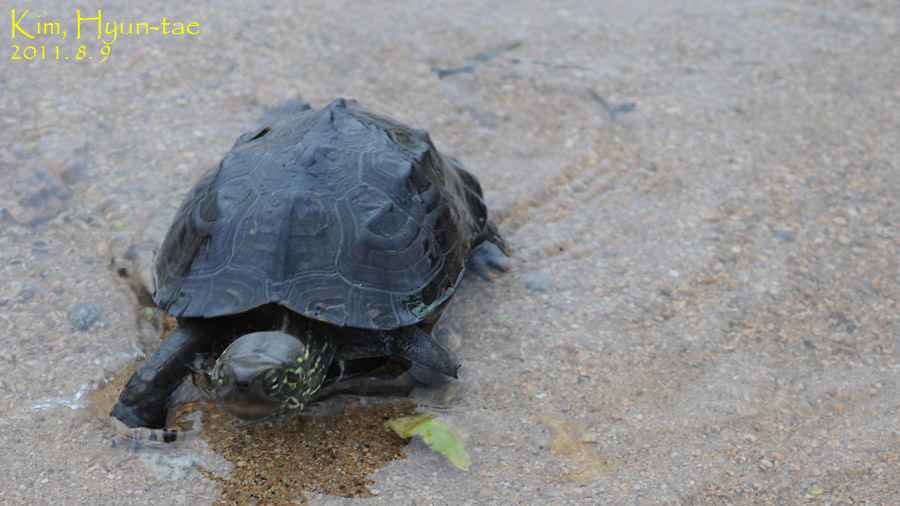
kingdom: Animalia
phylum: Chordata
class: Testudines
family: Geoemydidae
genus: Mauremys
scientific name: Mauremys reevesii
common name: Chinese pond turtle
